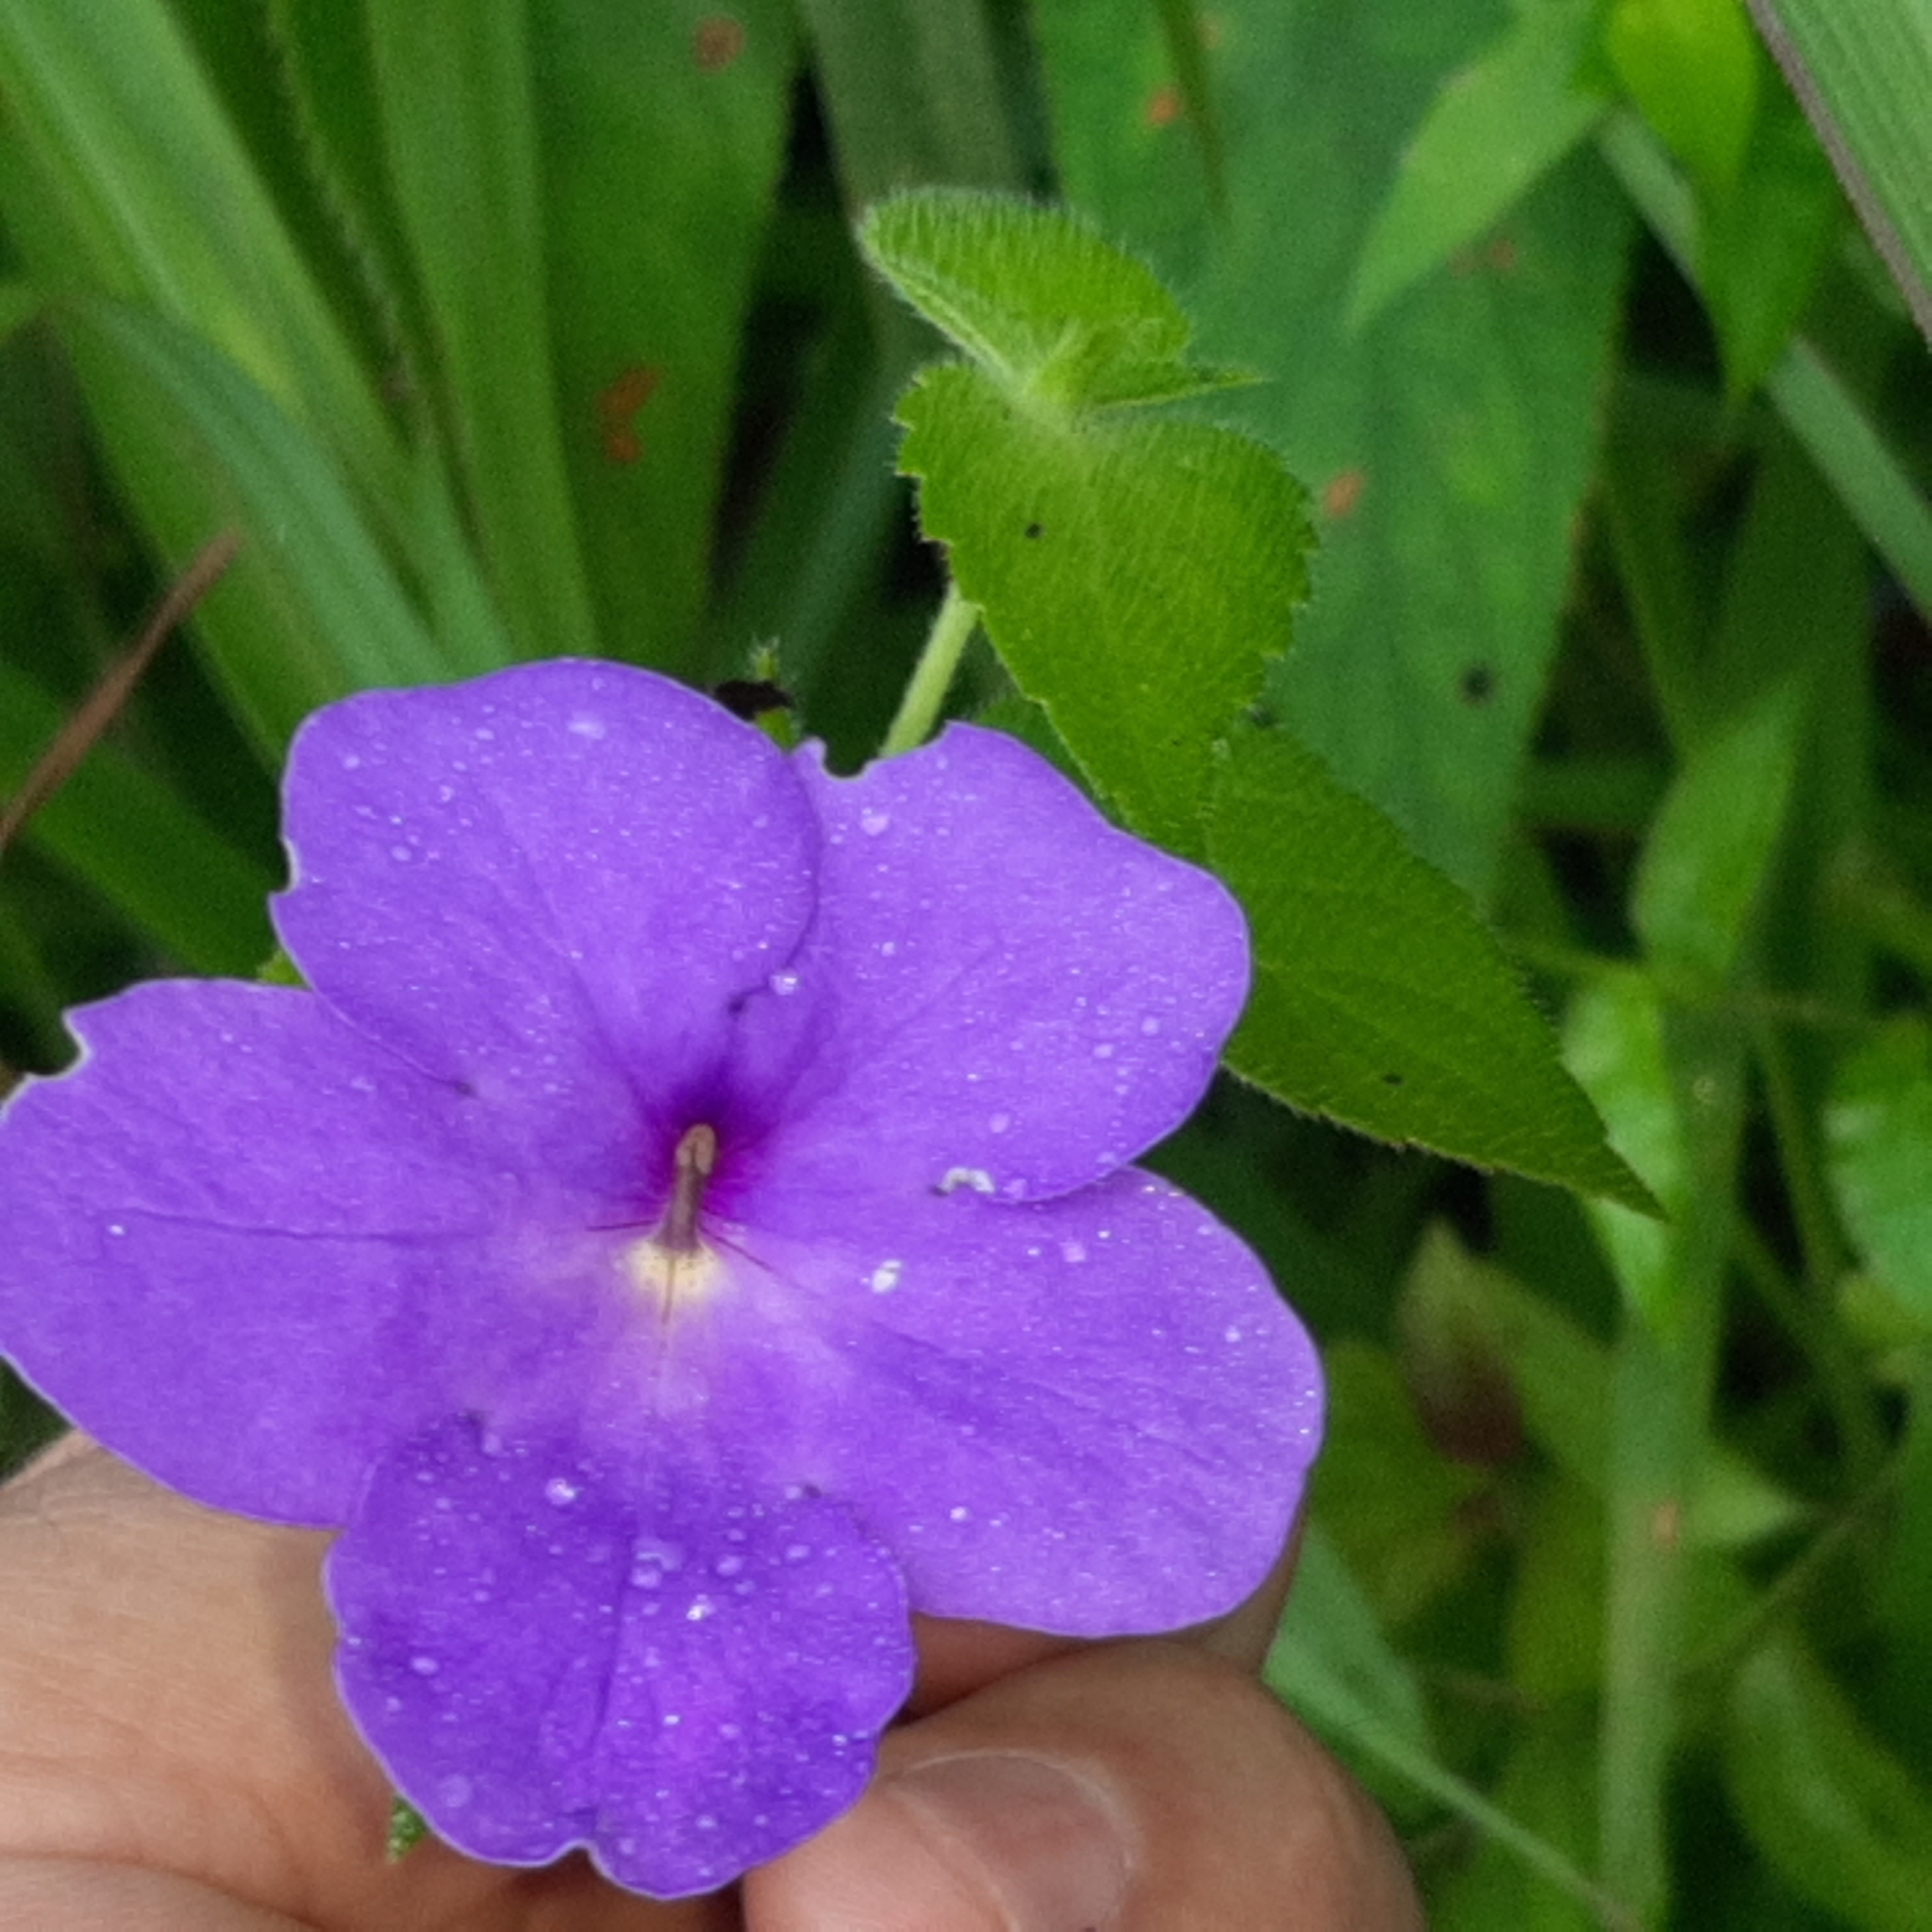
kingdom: Plantae
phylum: Tracheophyta
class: Magnoliopsida
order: Lamiales
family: Gesneriaceae
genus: Achimenes
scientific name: Achimenes longiflora
